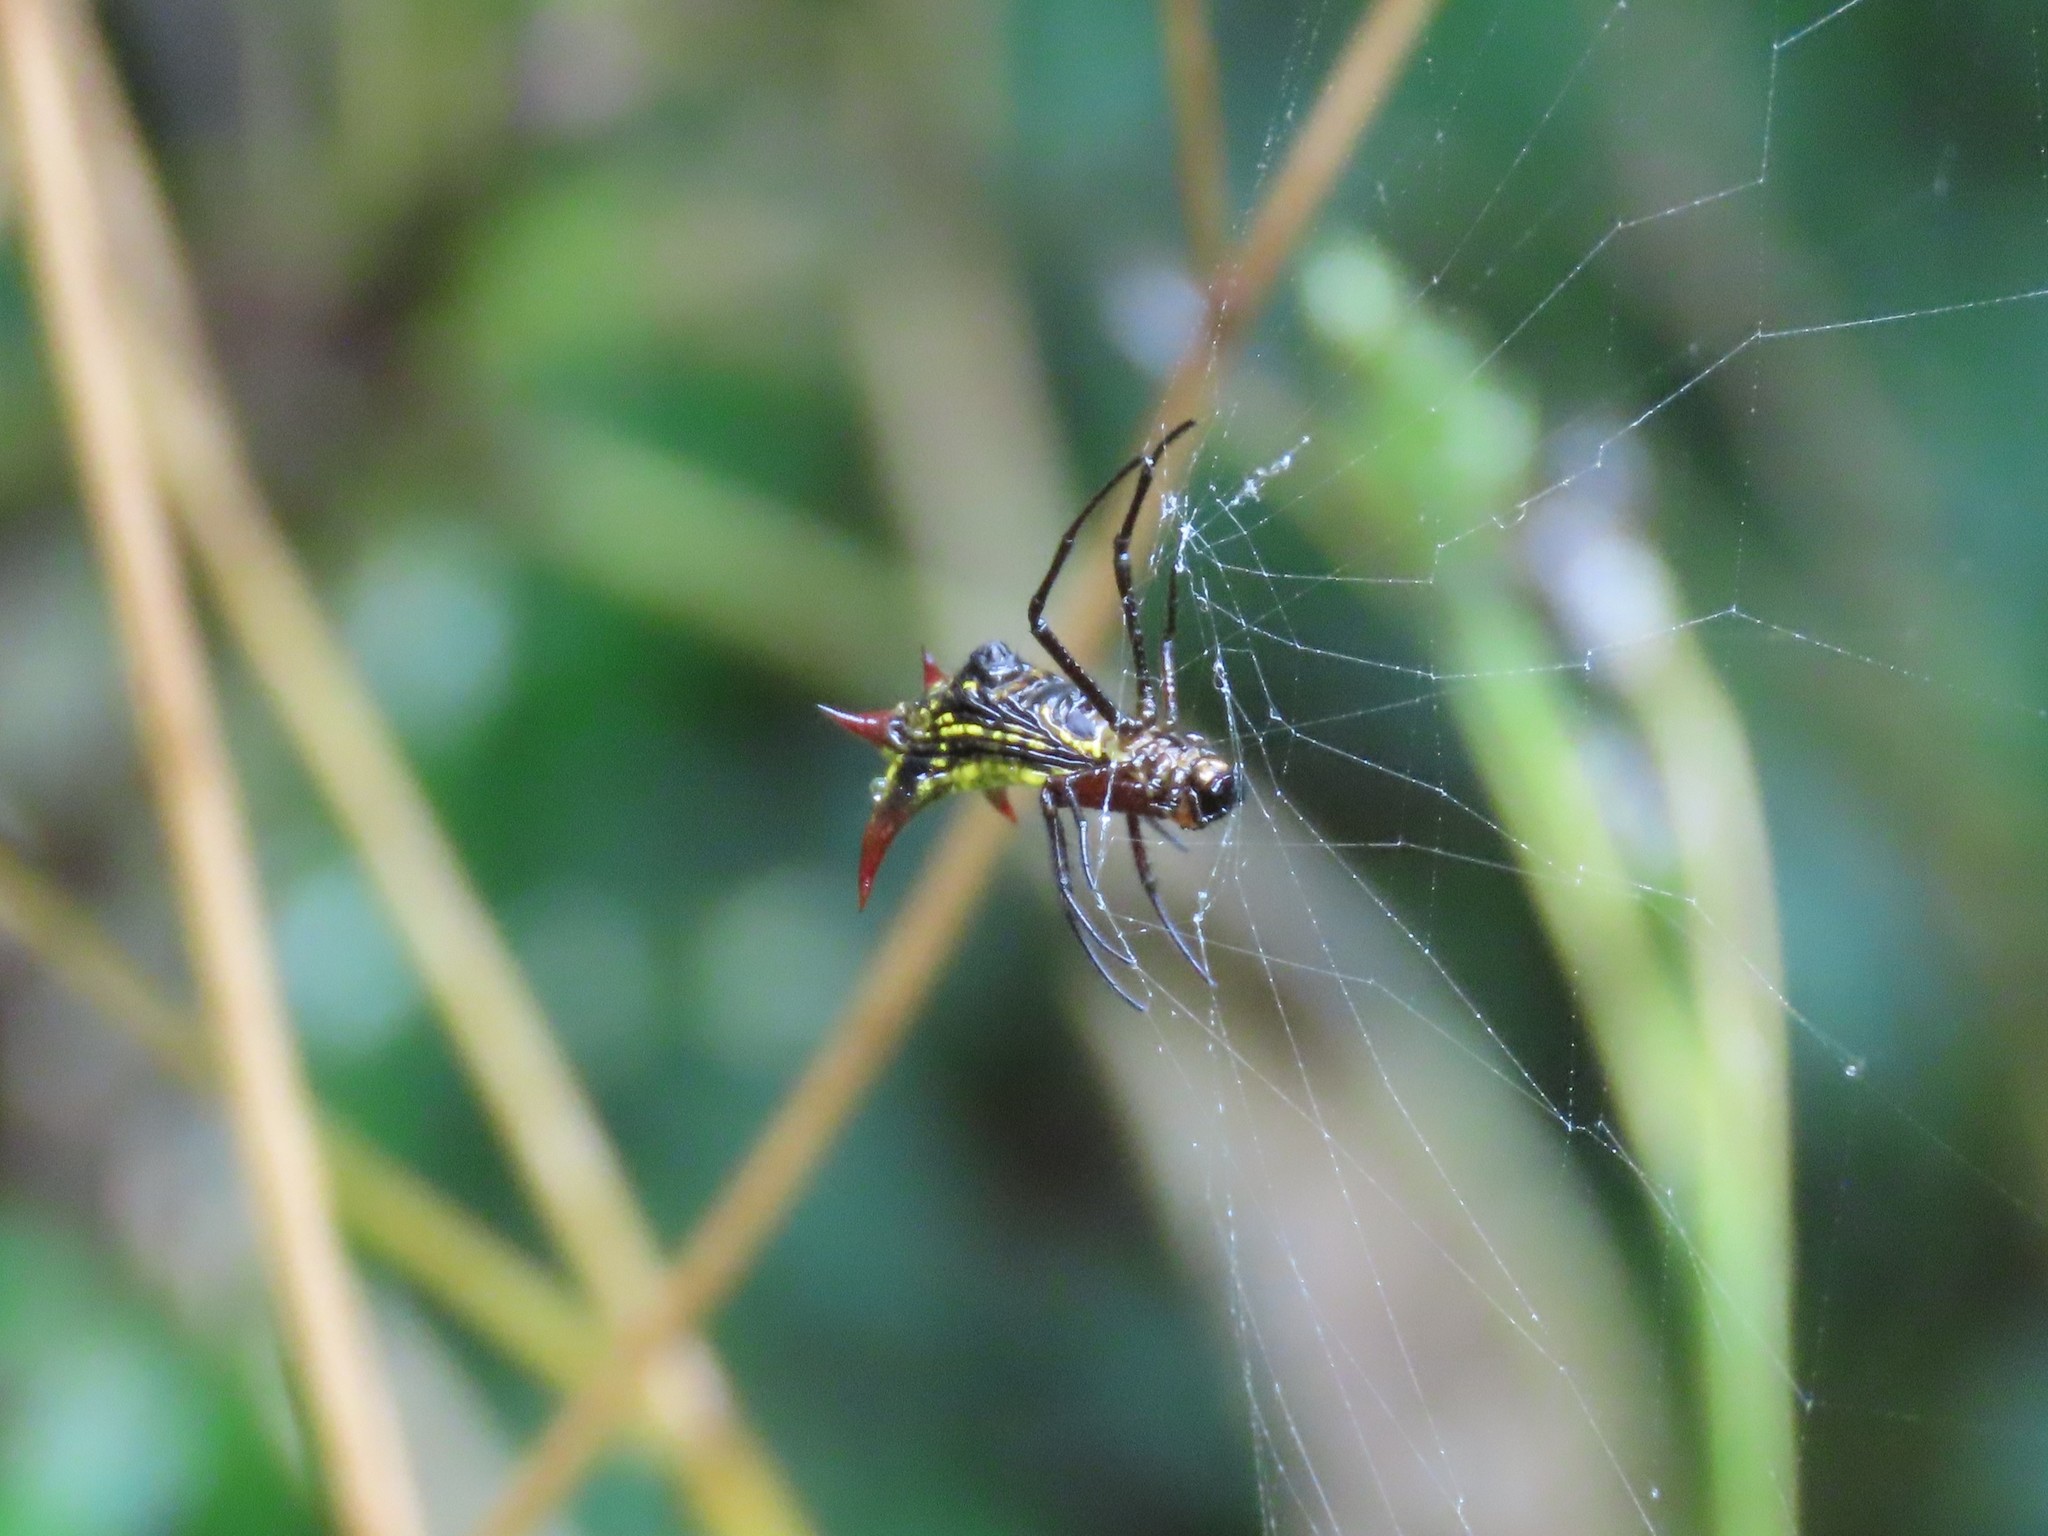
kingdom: Animalia
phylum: Arthropoda
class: Arachnida
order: Araneae
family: Araneidae
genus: Micrathena
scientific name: Micrathena guerini
